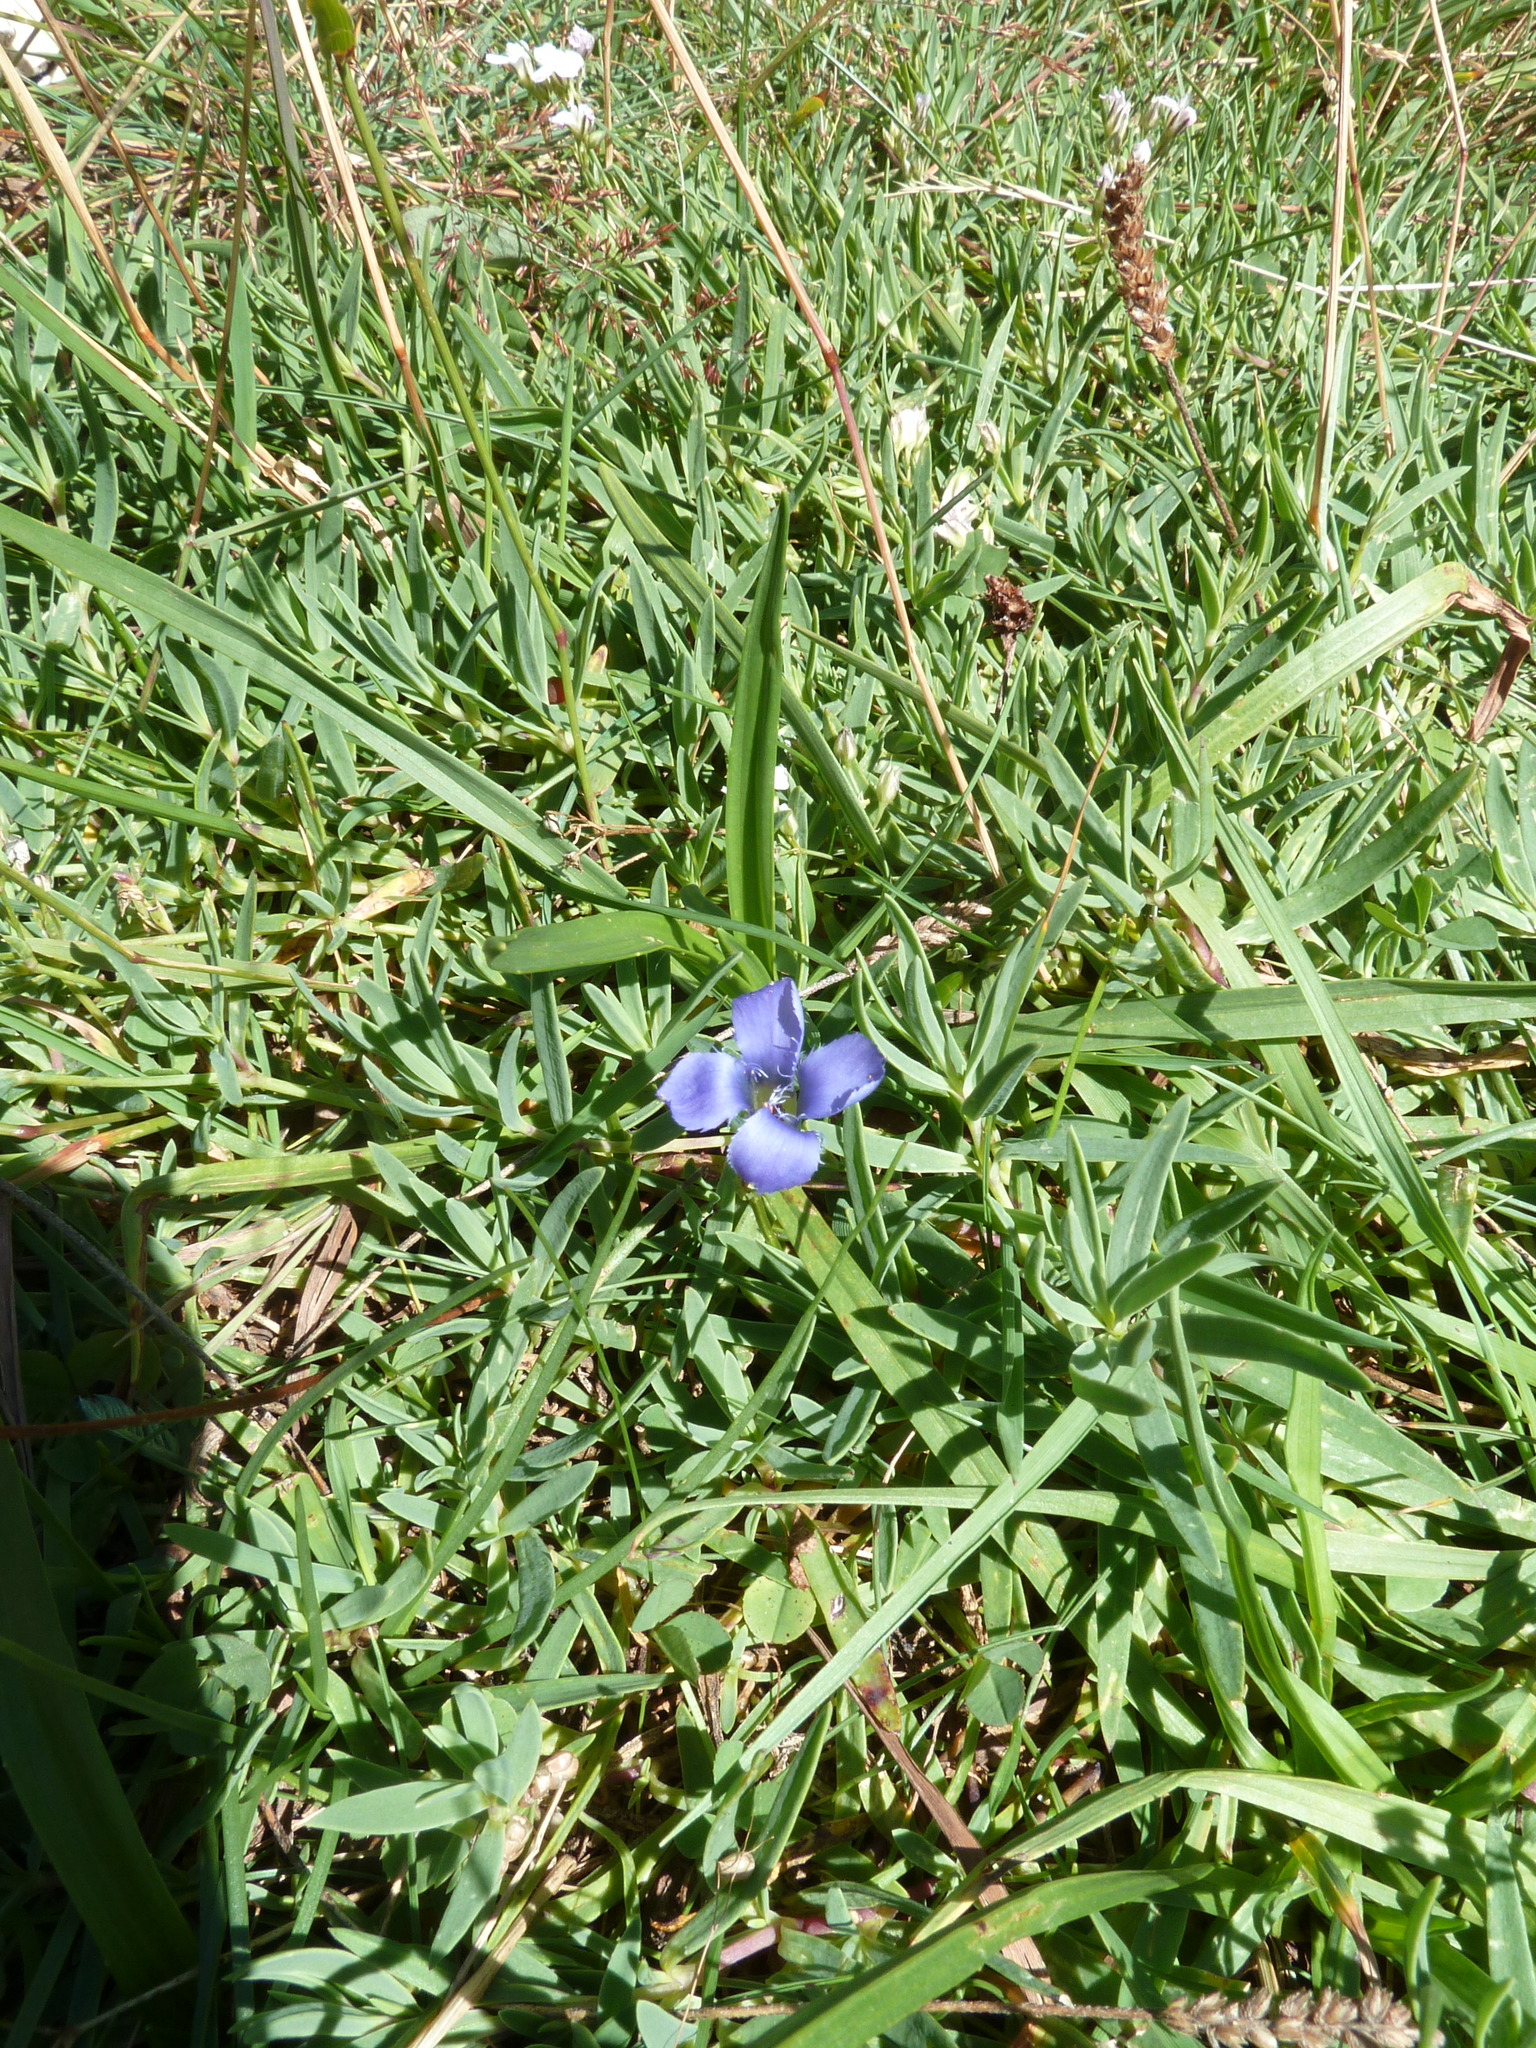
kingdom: Plantae
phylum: Tracheophyta
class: Magnoliopsida
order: Gentianales
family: Gentianaceae
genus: Gentianopsis
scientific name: Gentianopsis ciliata
